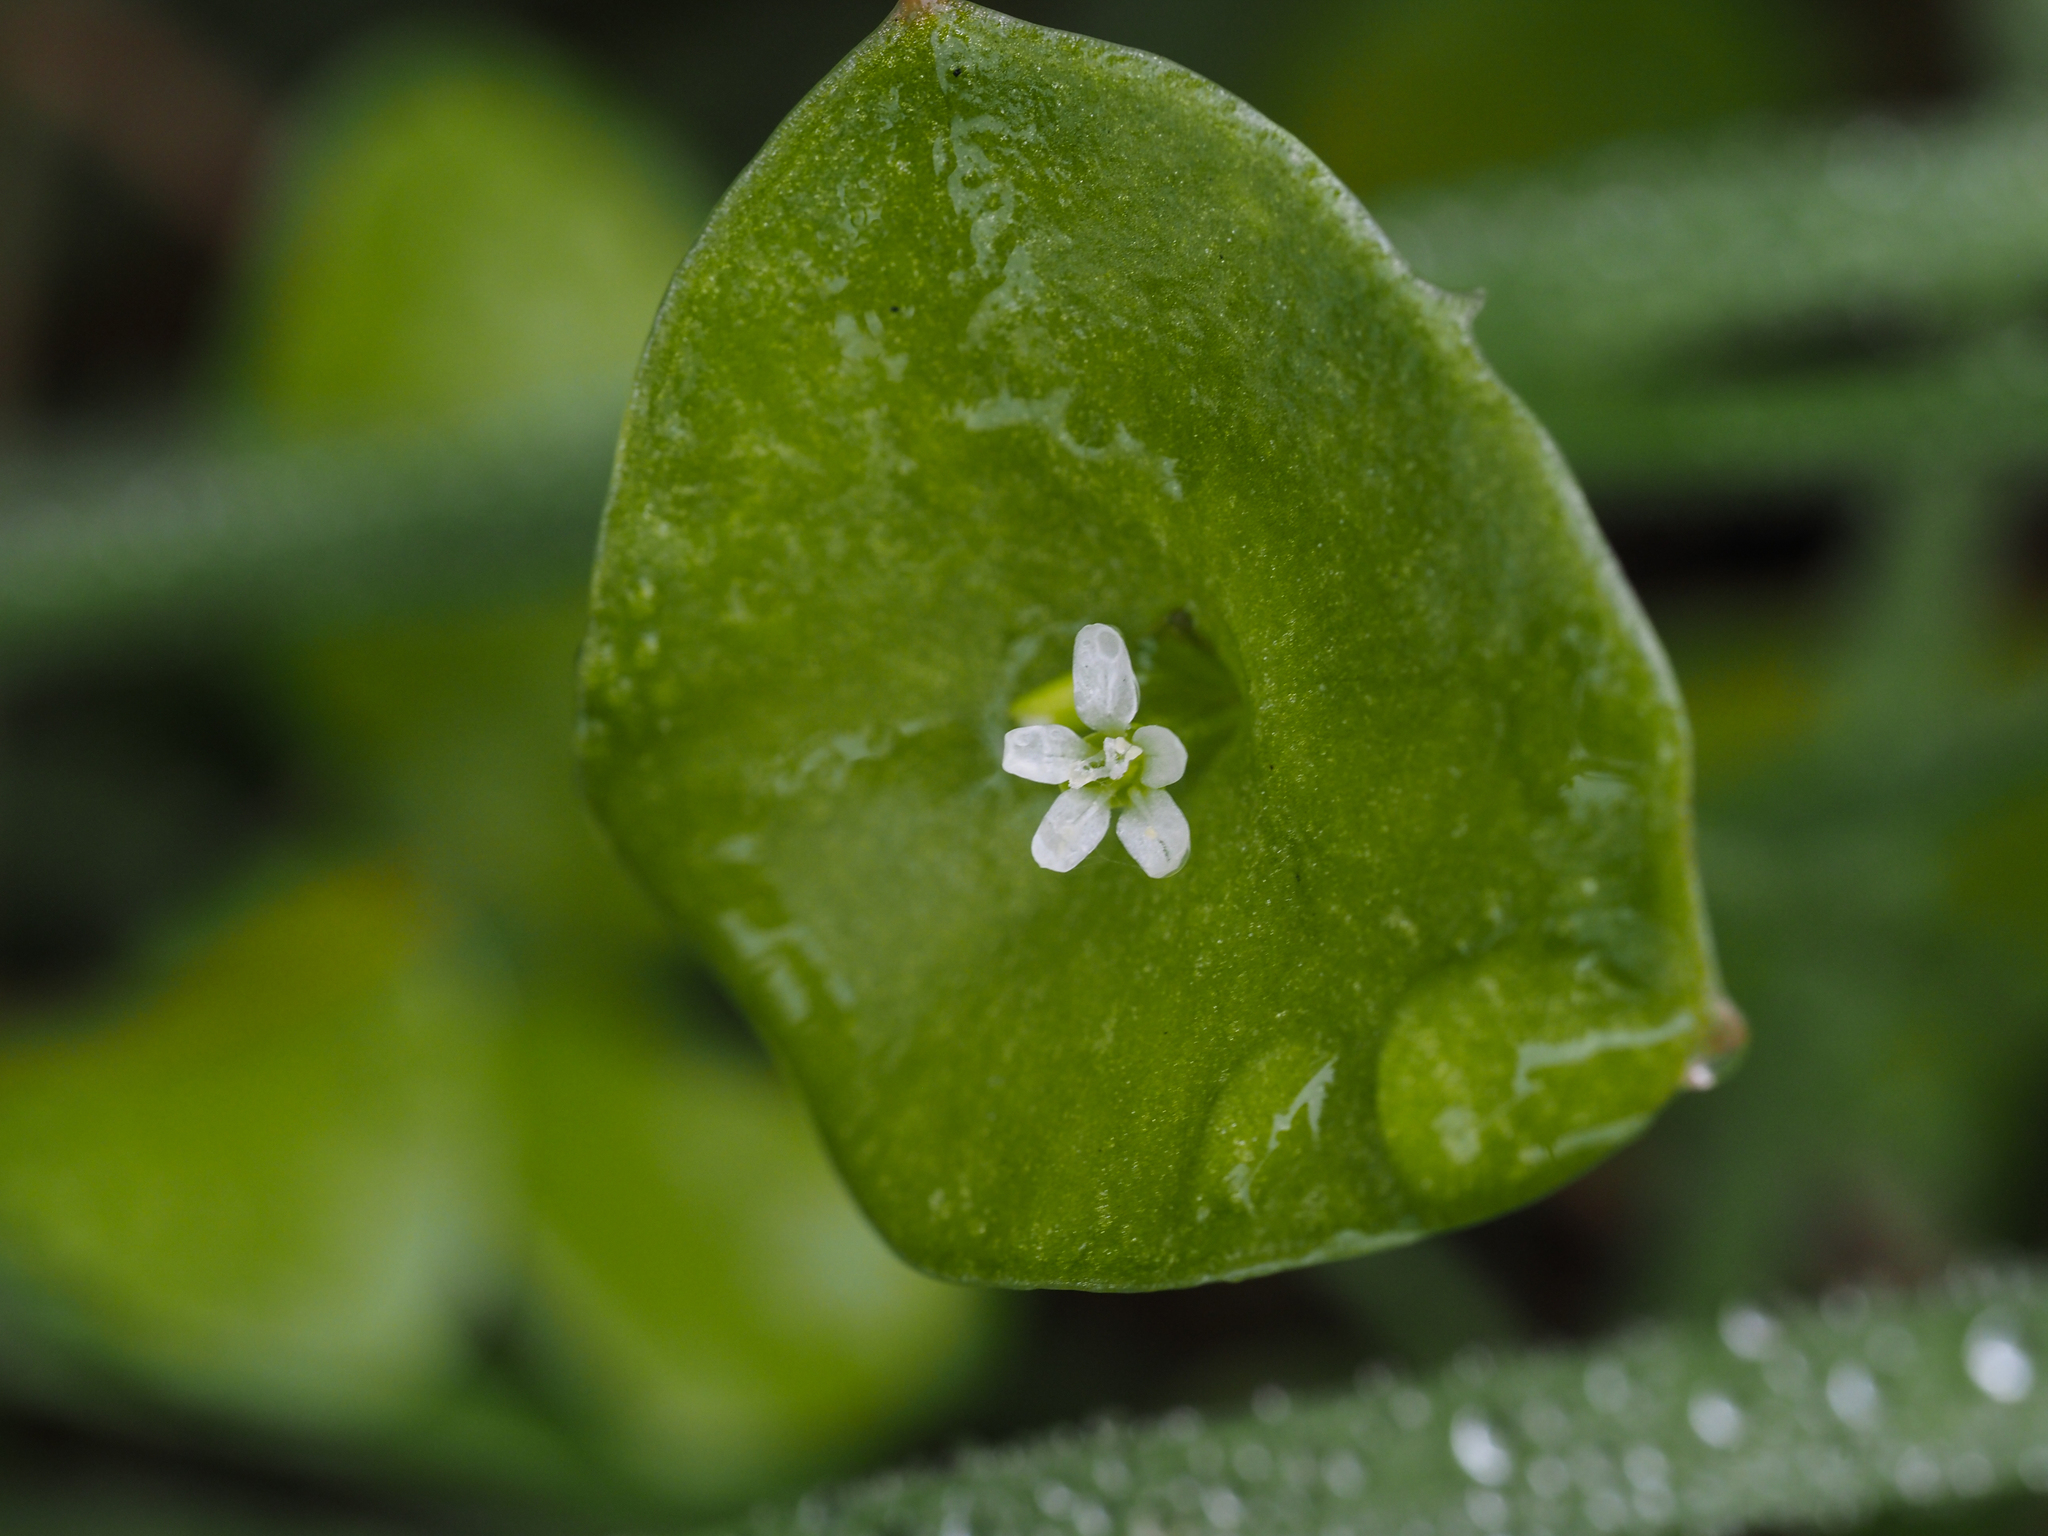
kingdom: Plantae
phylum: Tracheophyta
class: Magnoliopsida
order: Caryophyllales
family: Montiaceae
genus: Claytonia
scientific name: Claytonia perfoliata
